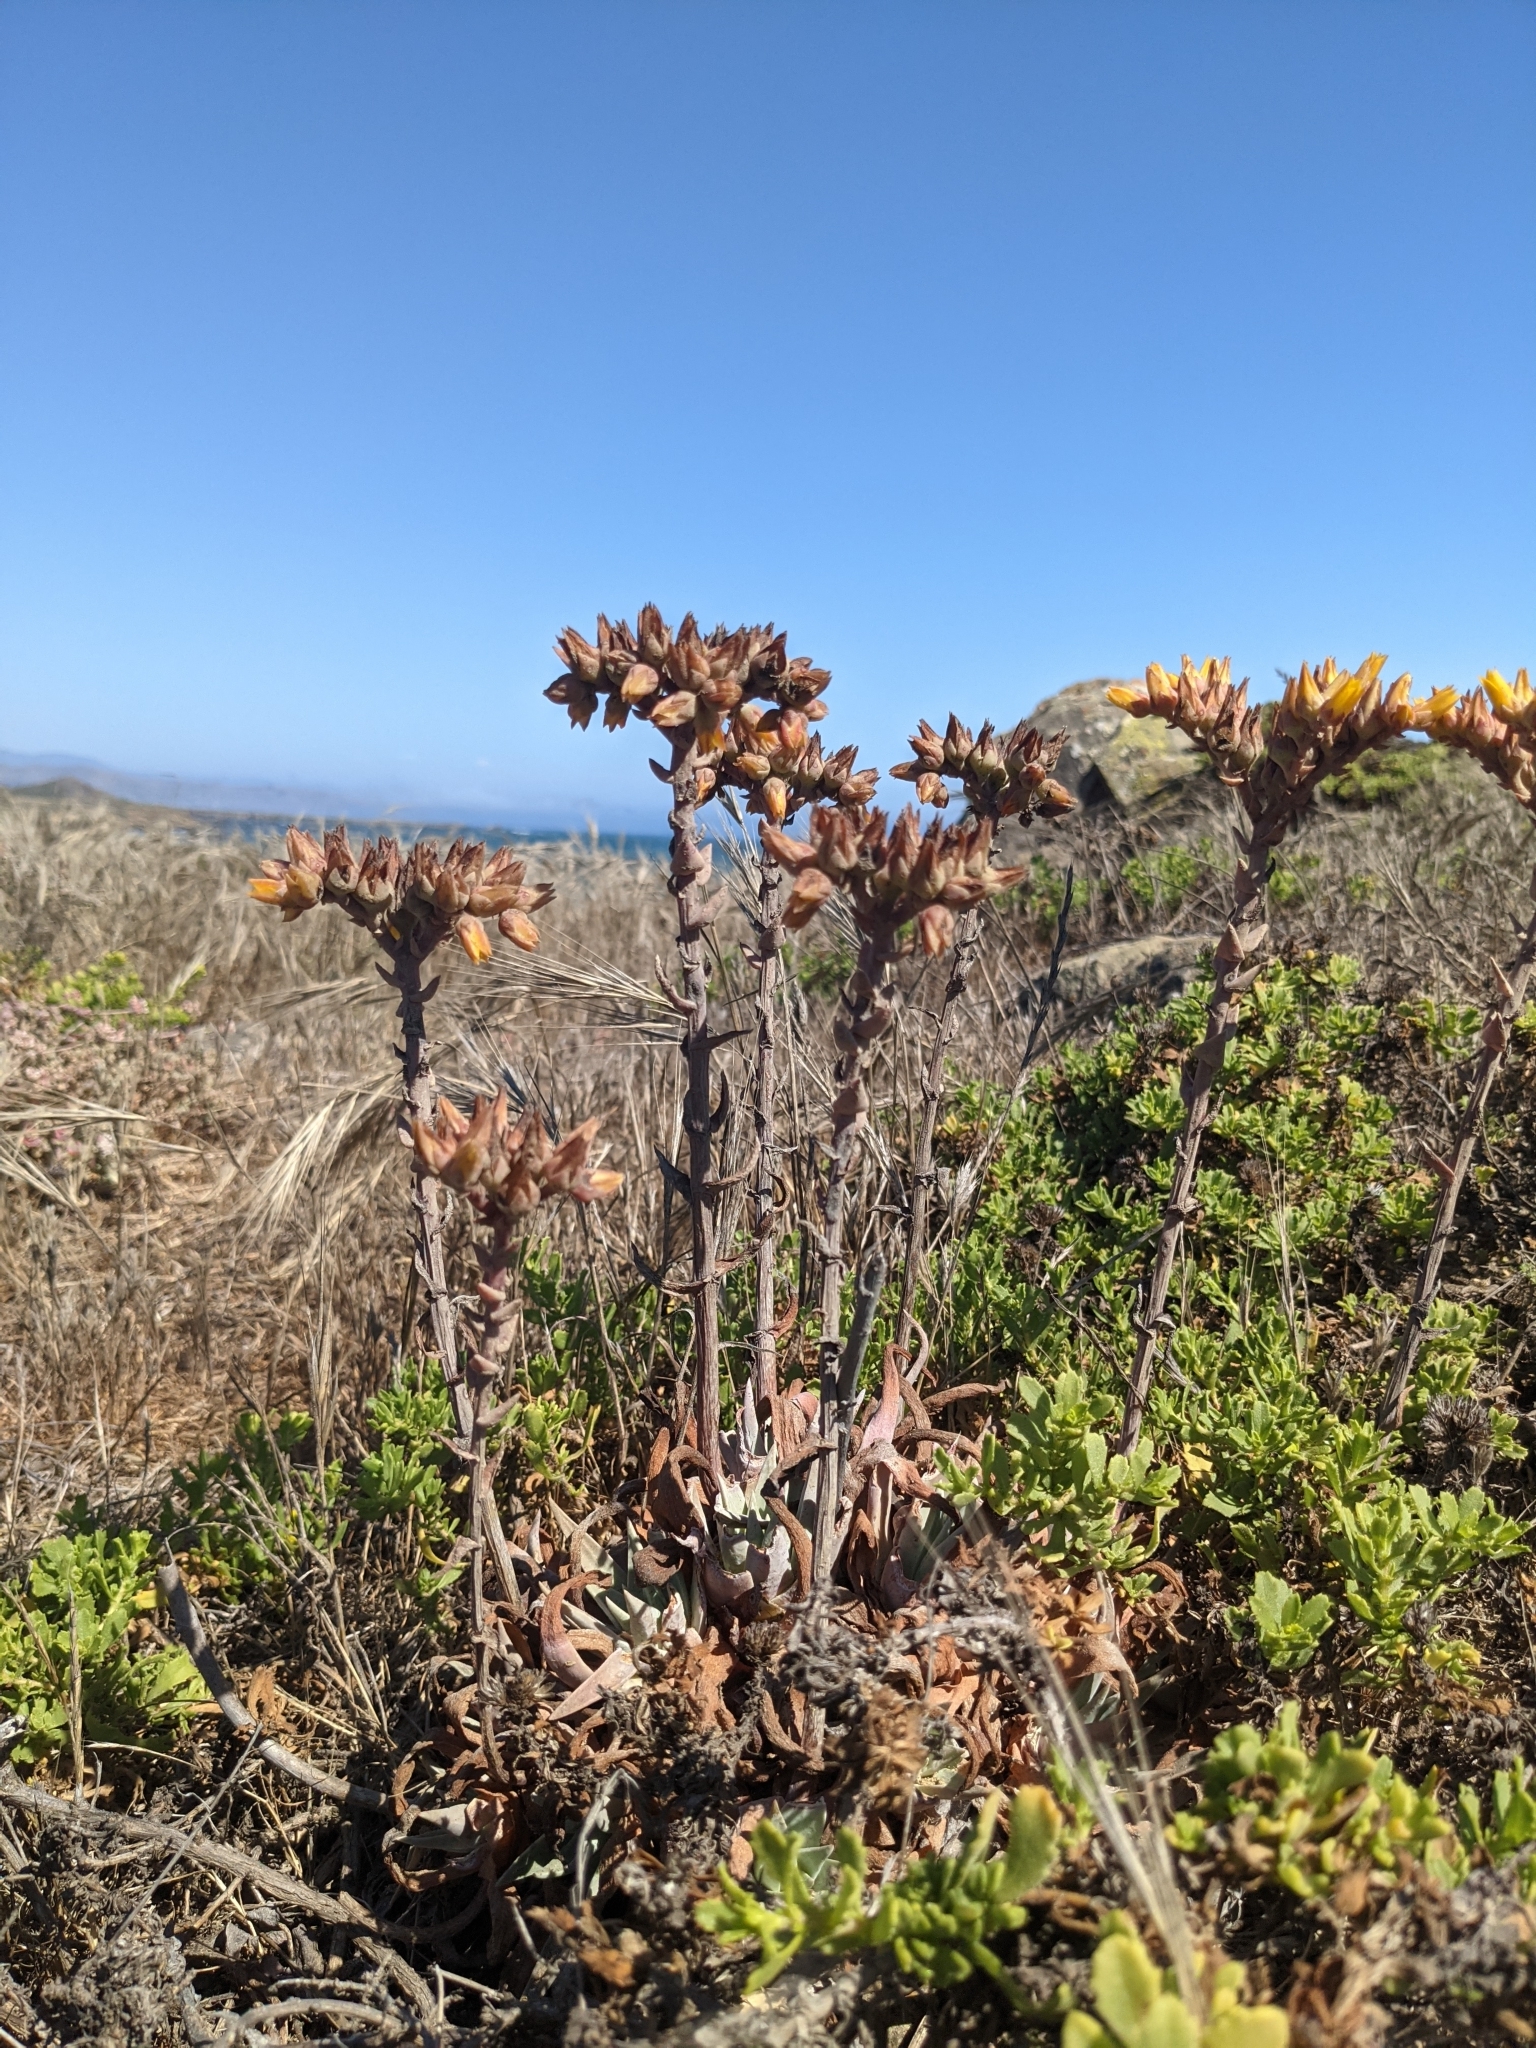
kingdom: Plantae
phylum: Tracheophyta
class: Magnoliopsida
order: Saxifragales
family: Crassulaceae
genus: Dudleya
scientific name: Dudleya caespitosa
